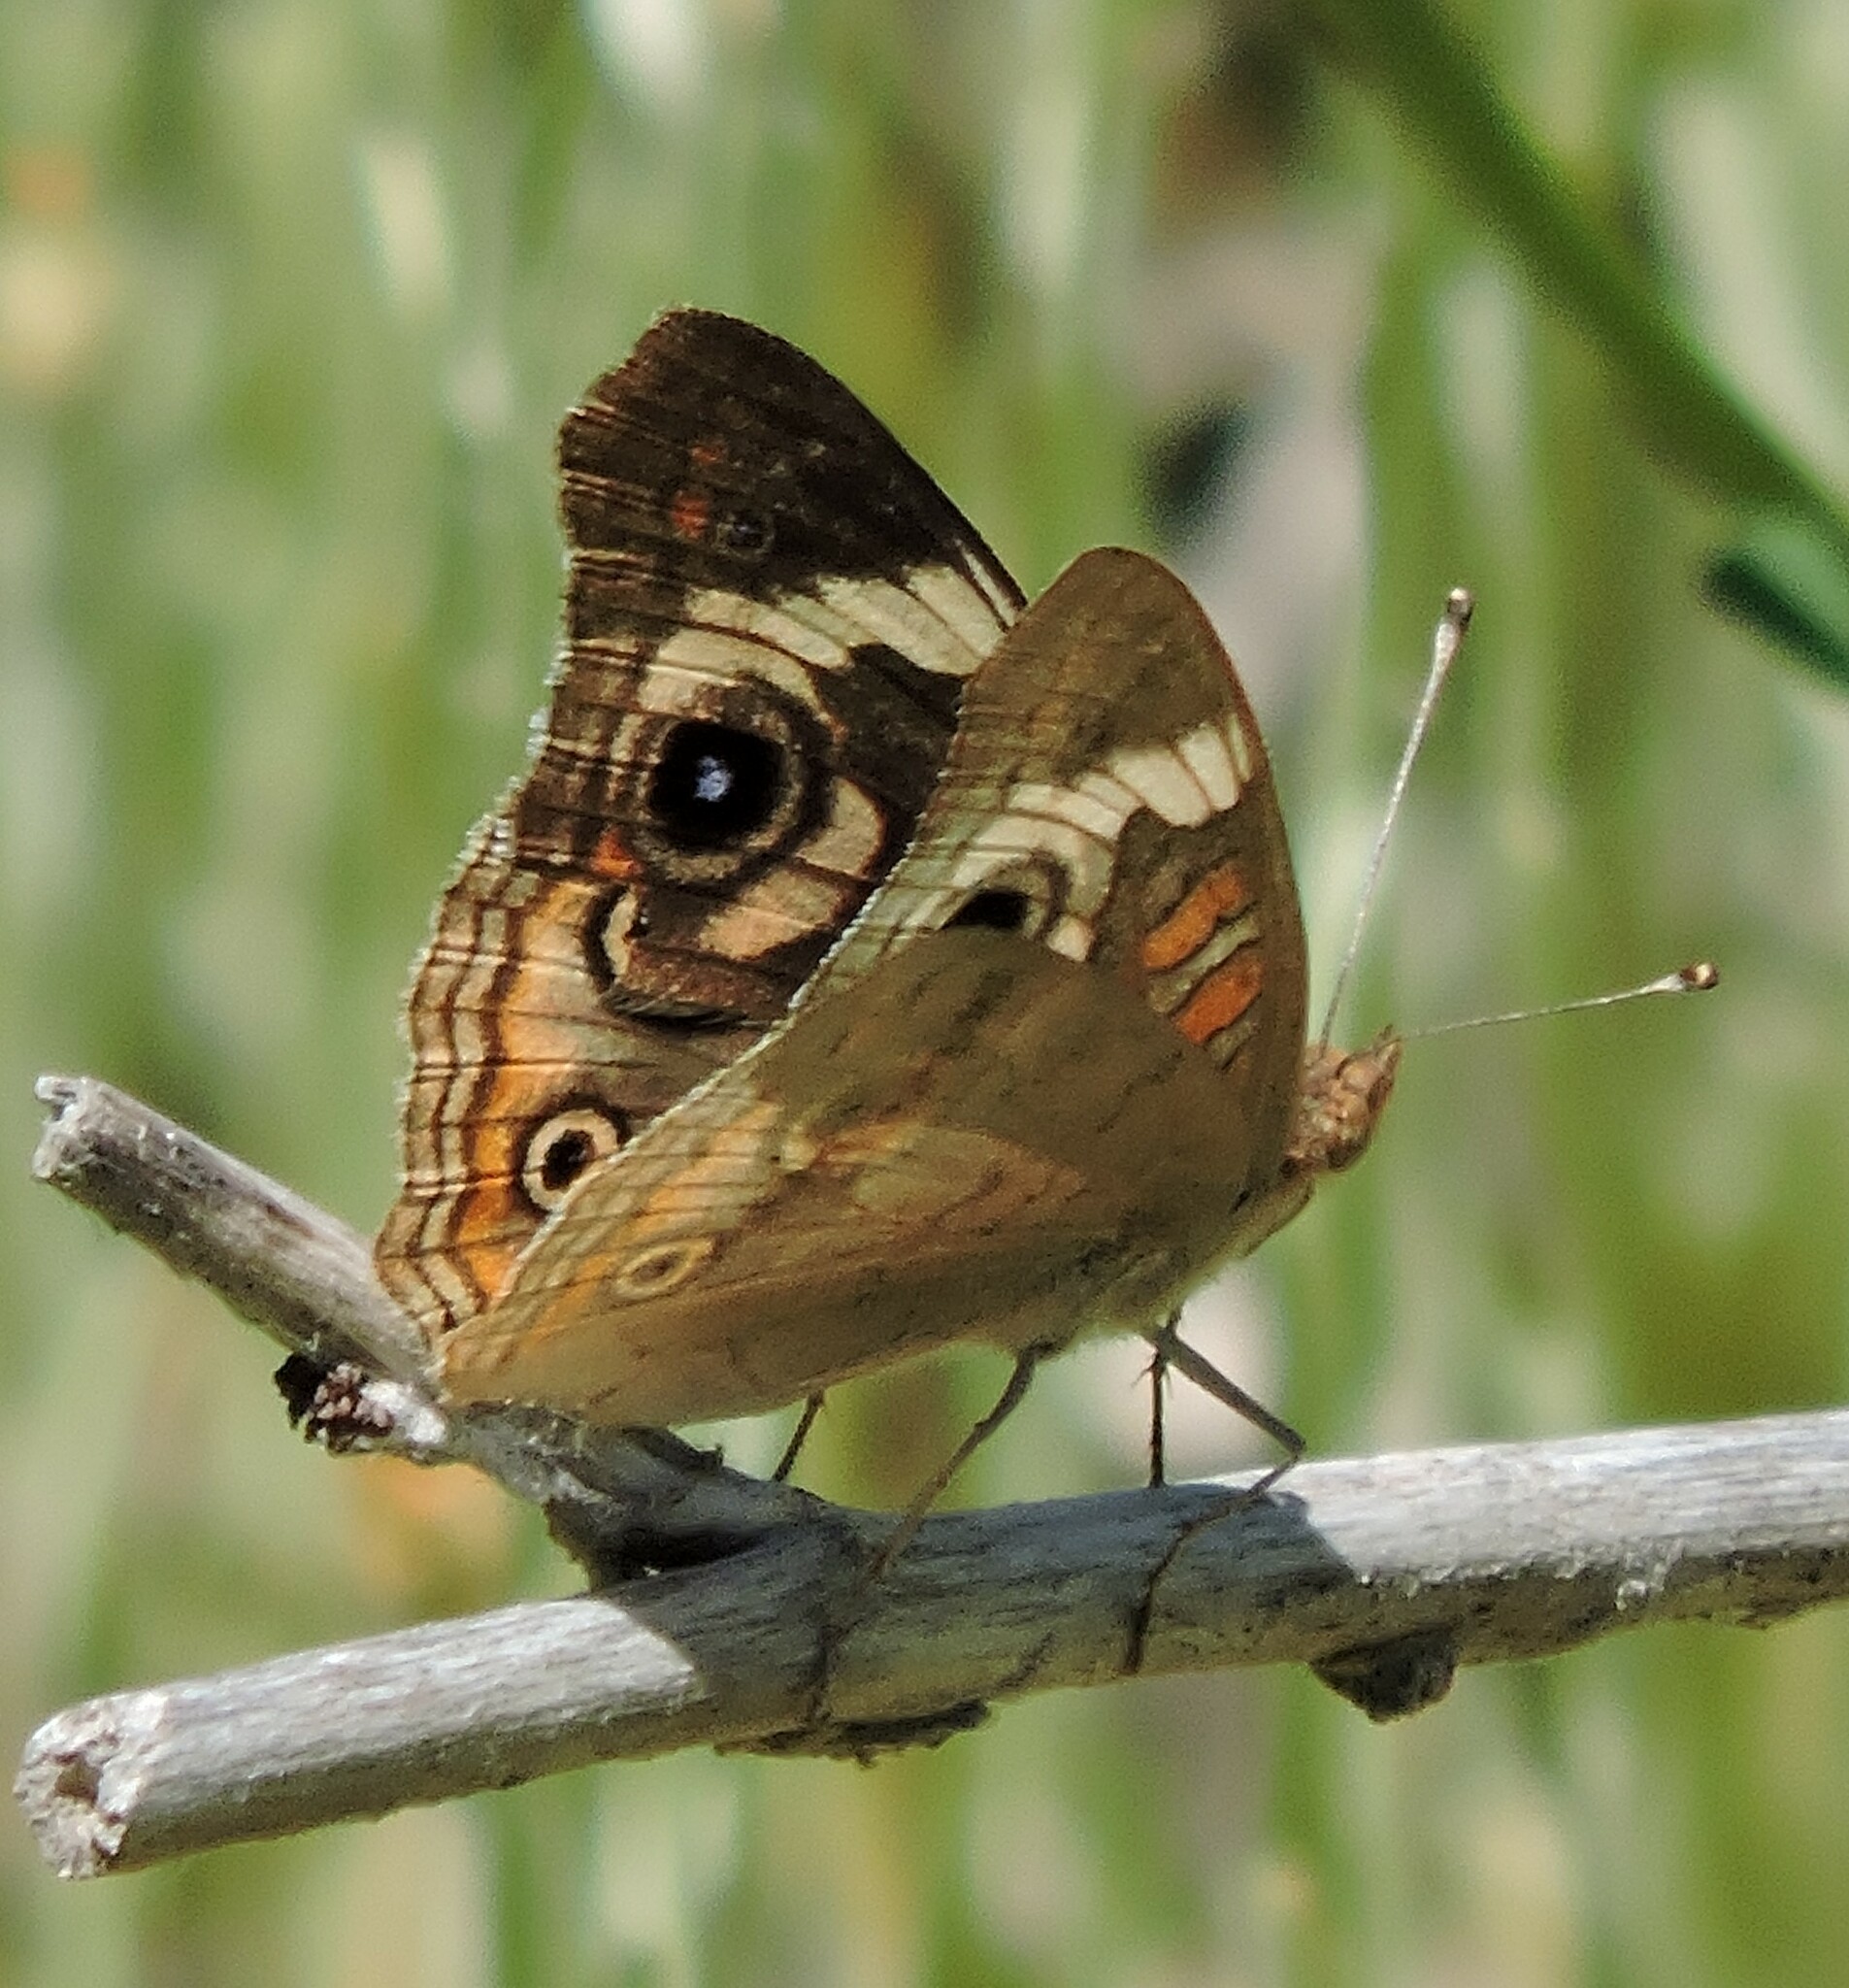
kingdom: Animalia
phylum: Arthropoda
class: Insecta
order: Lepidoptera
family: Nymphalidae
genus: Junonia
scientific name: Junonia grisea
